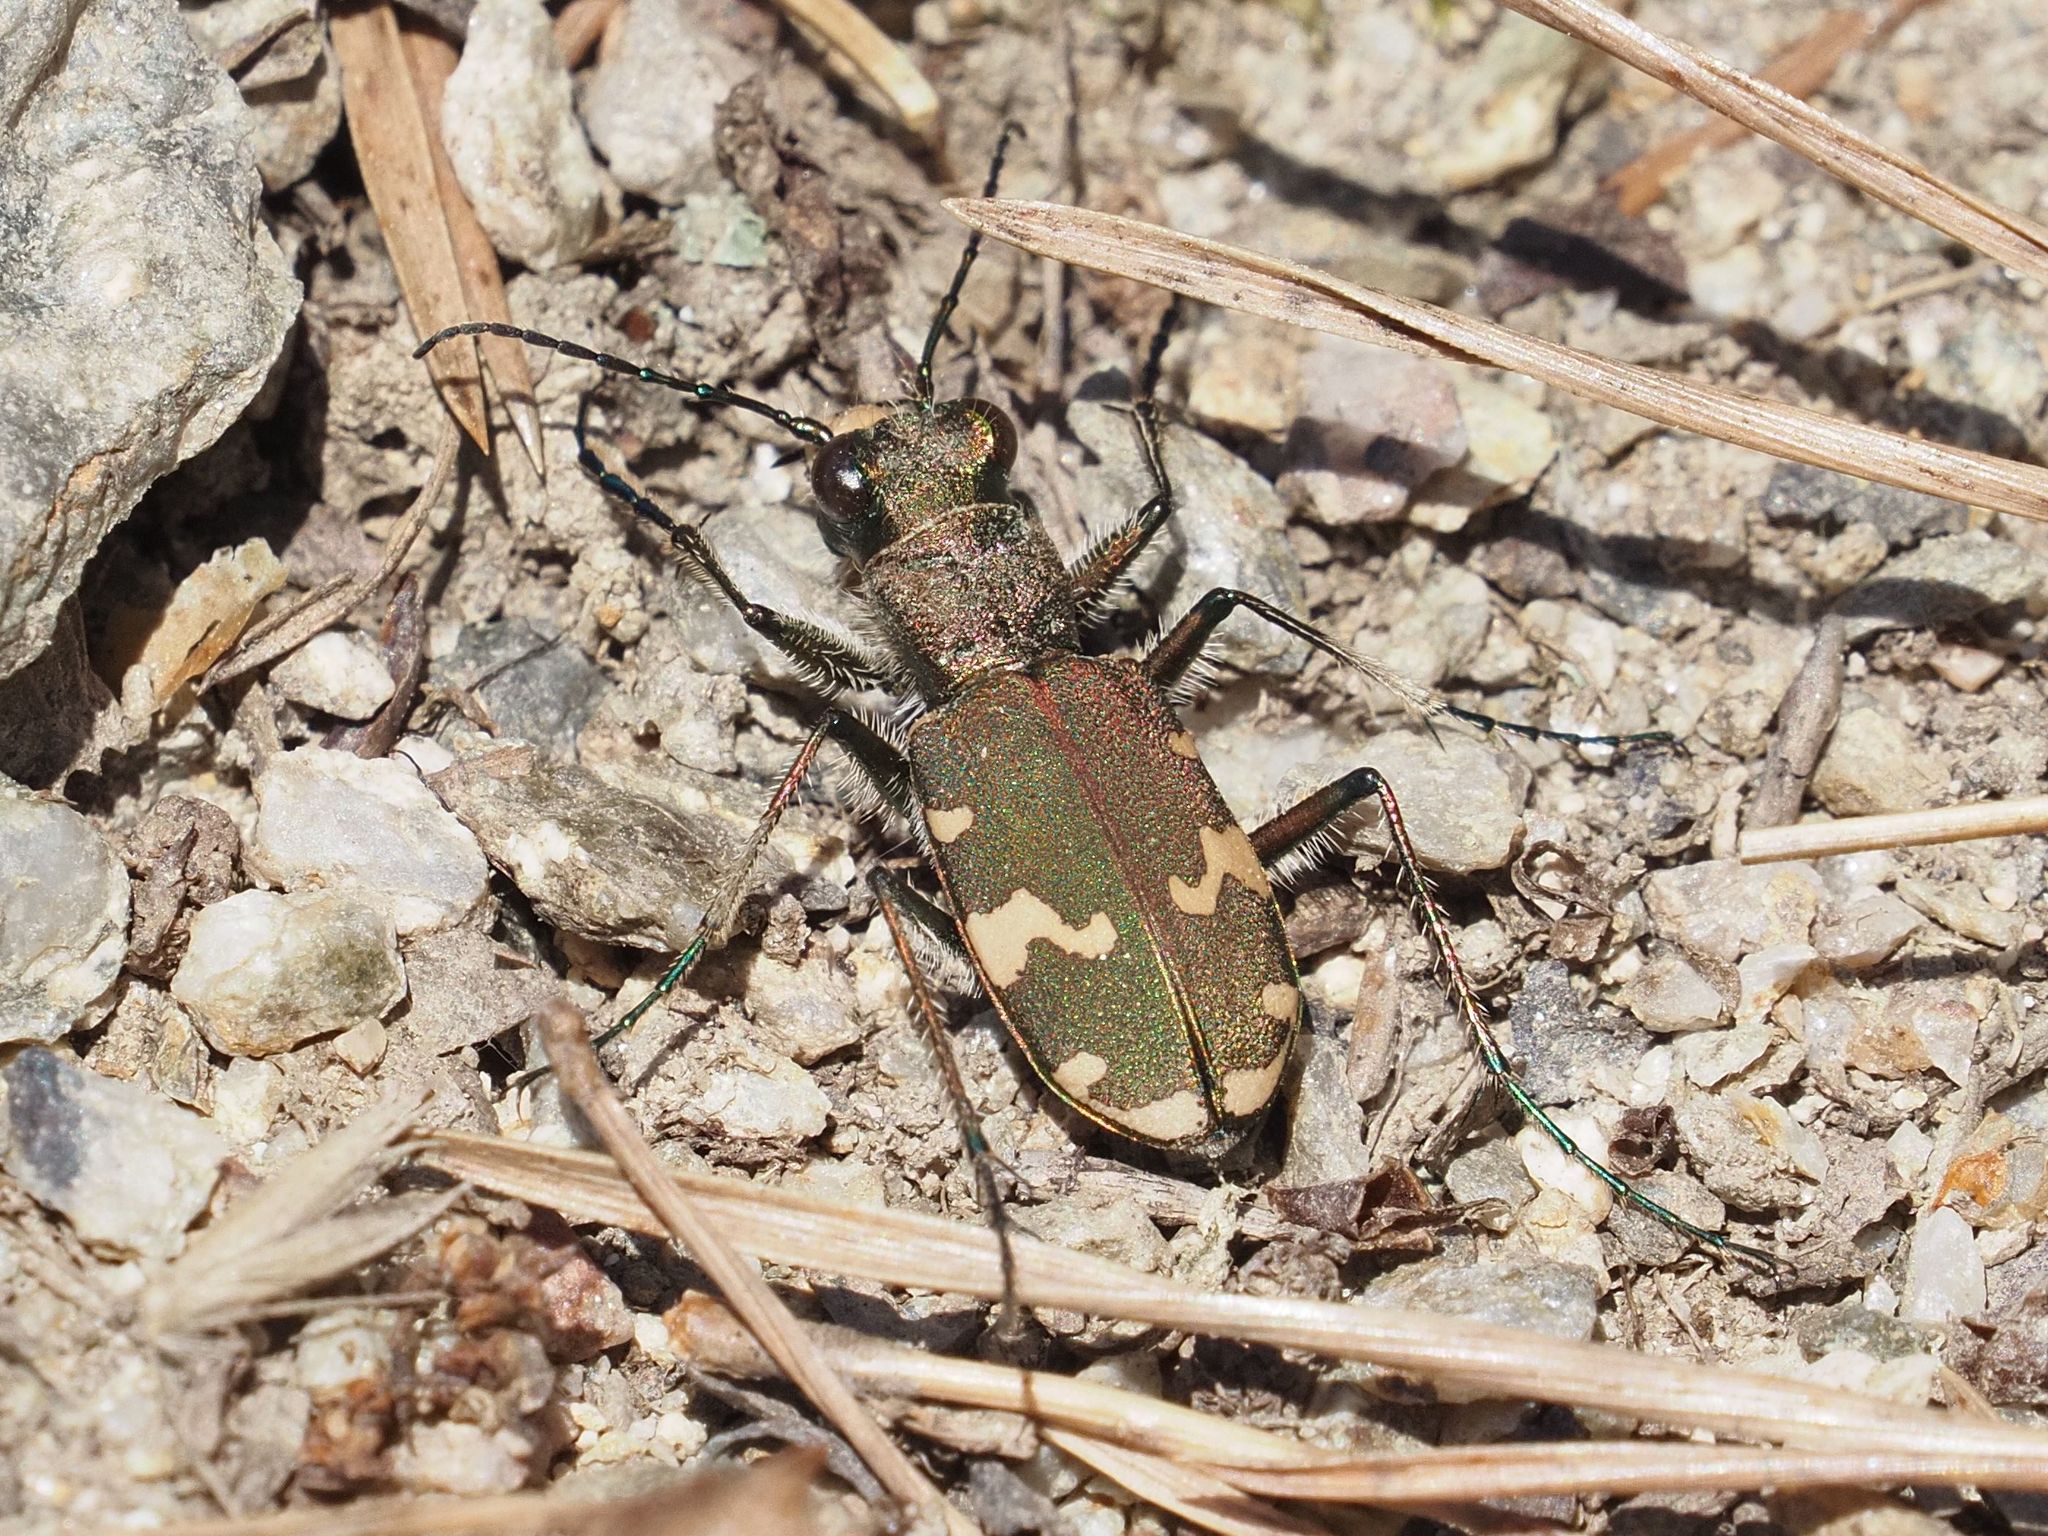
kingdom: Animalia
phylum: Arthropoda
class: Insecta
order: Coleoptera
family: Carabidae
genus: Cicindela
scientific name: Cicindela sylvicola
